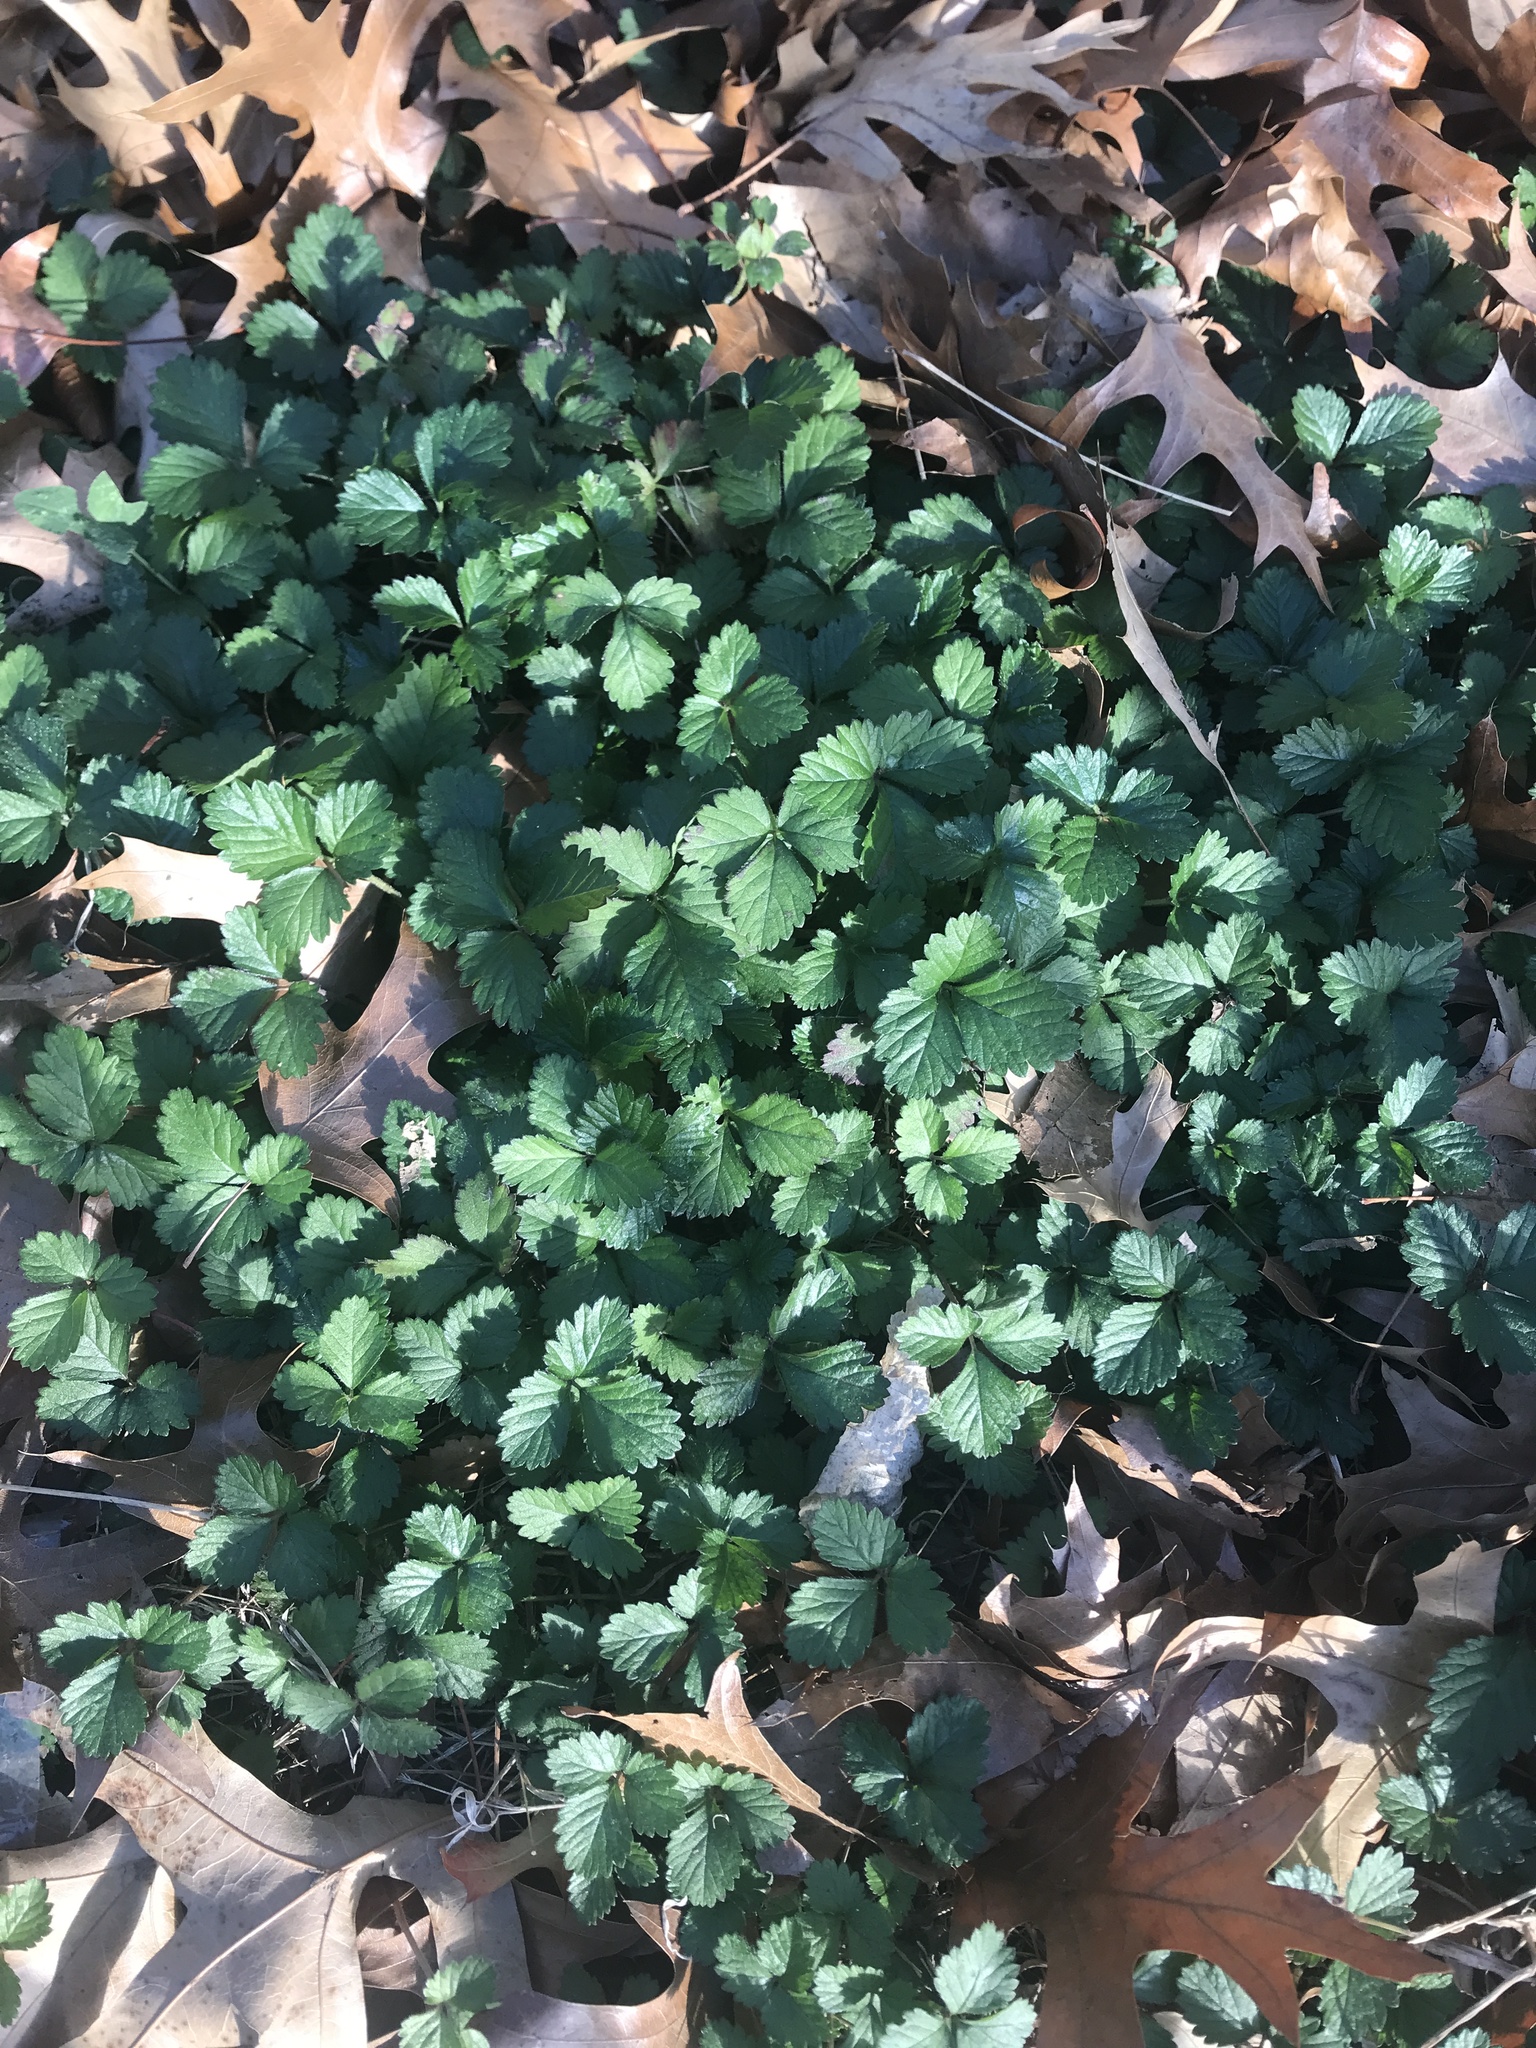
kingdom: Plantae
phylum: Tracheophyta
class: Magnoliopsida
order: Rosales
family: Rosaceae
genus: Potentilla
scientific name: Potentilla indica
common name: Yellow-flowered strawberry
